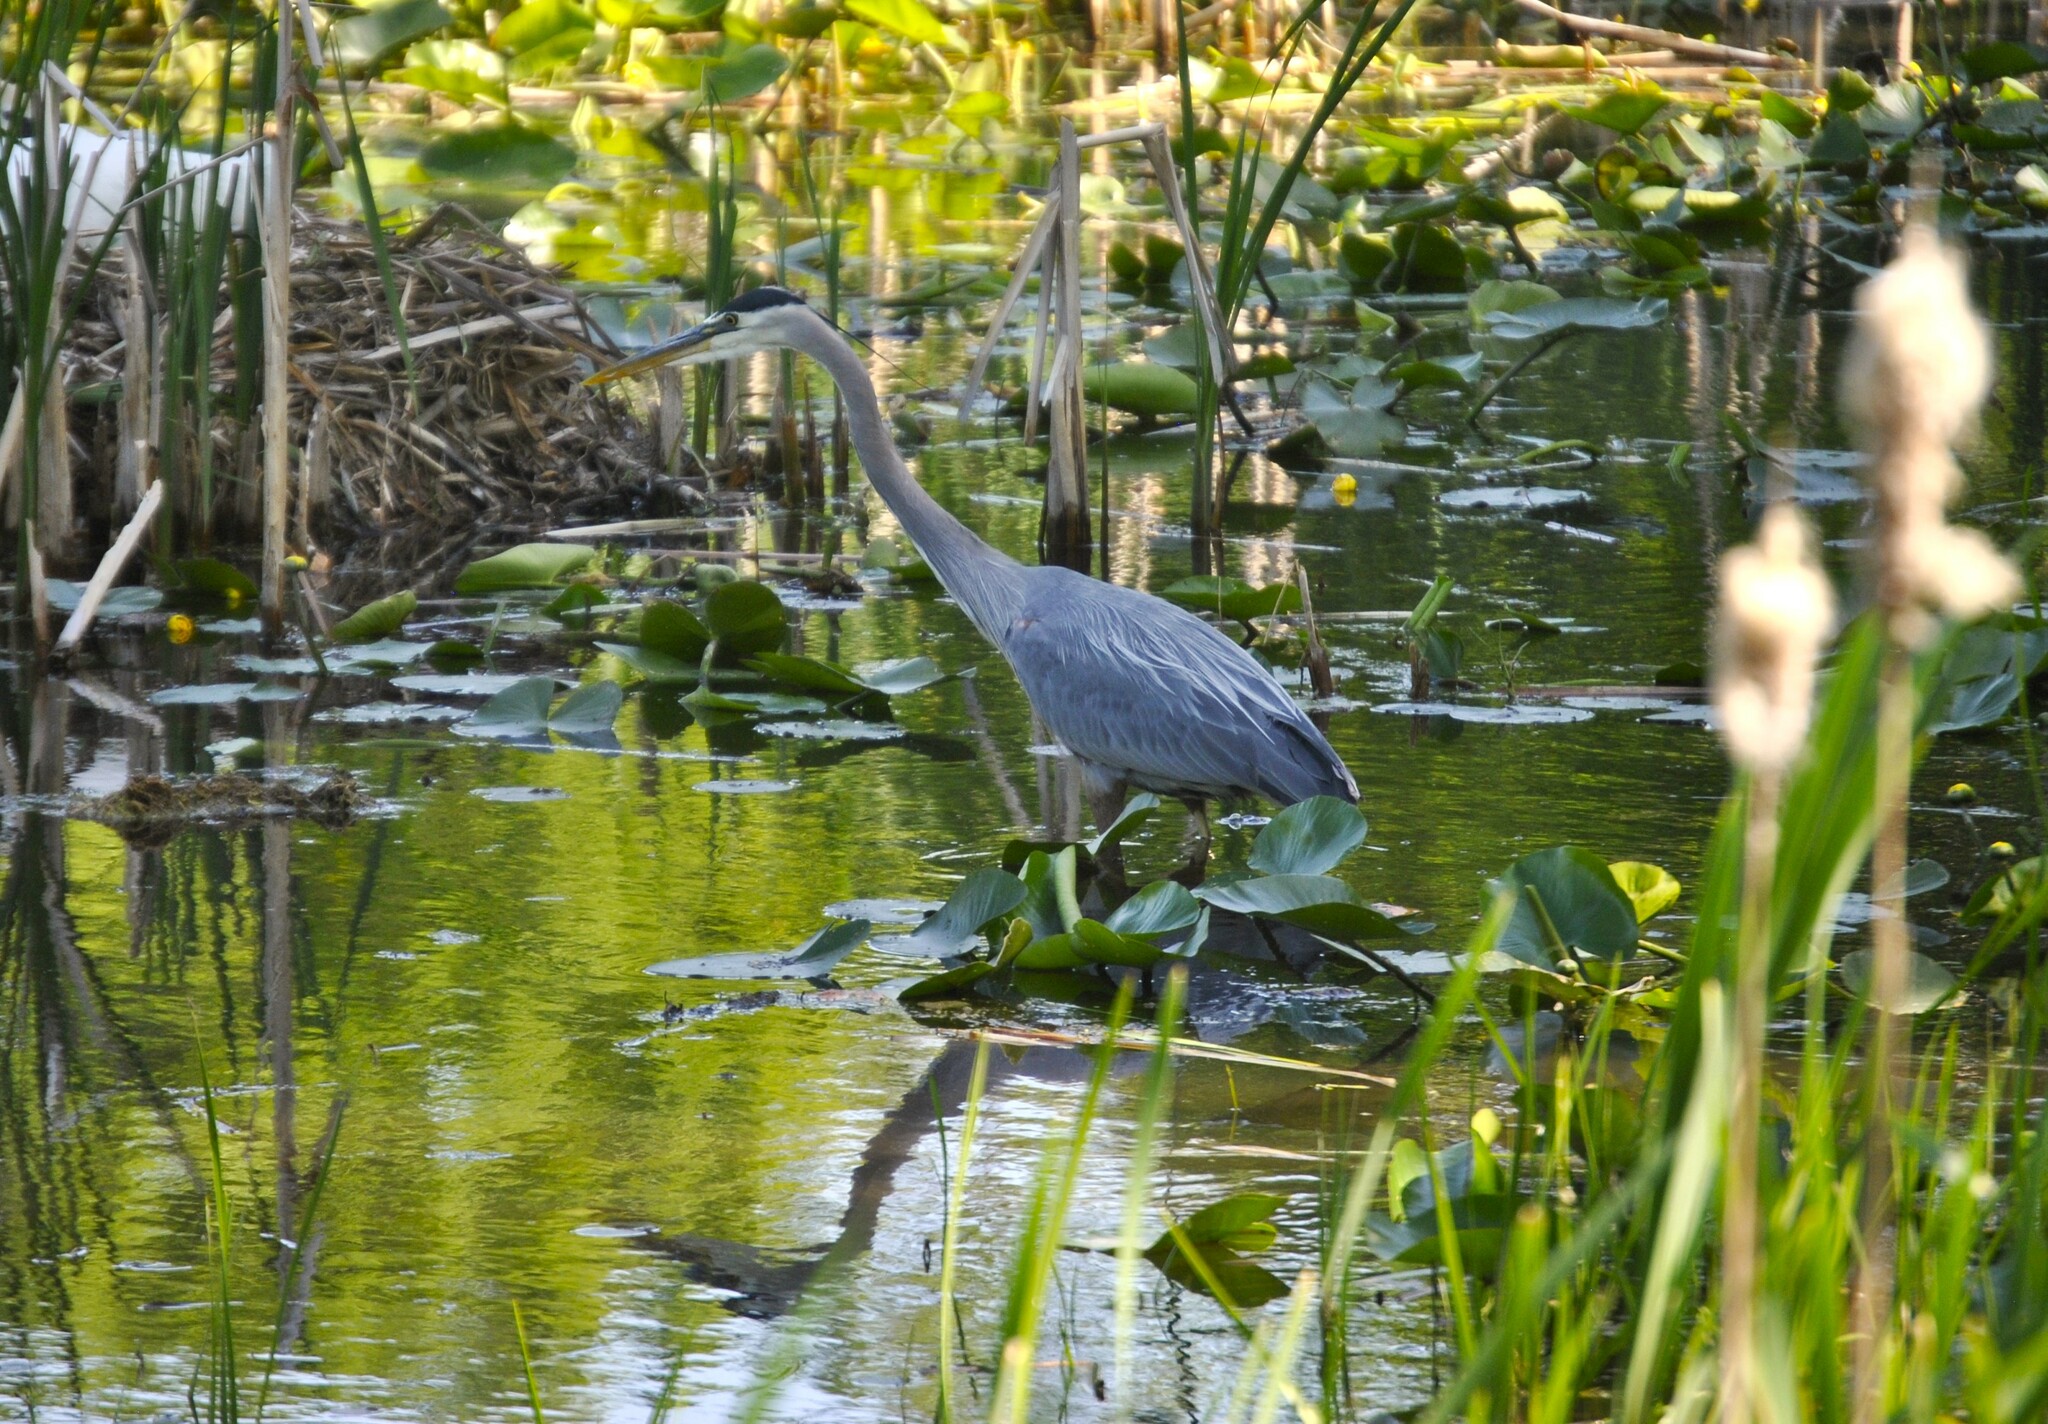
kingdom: Animalia
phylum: Chordata
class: Aves
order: Pelecaniformes
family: Ardeidae
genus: Ardea
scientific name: Ardea herodias
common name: Great blue heron
